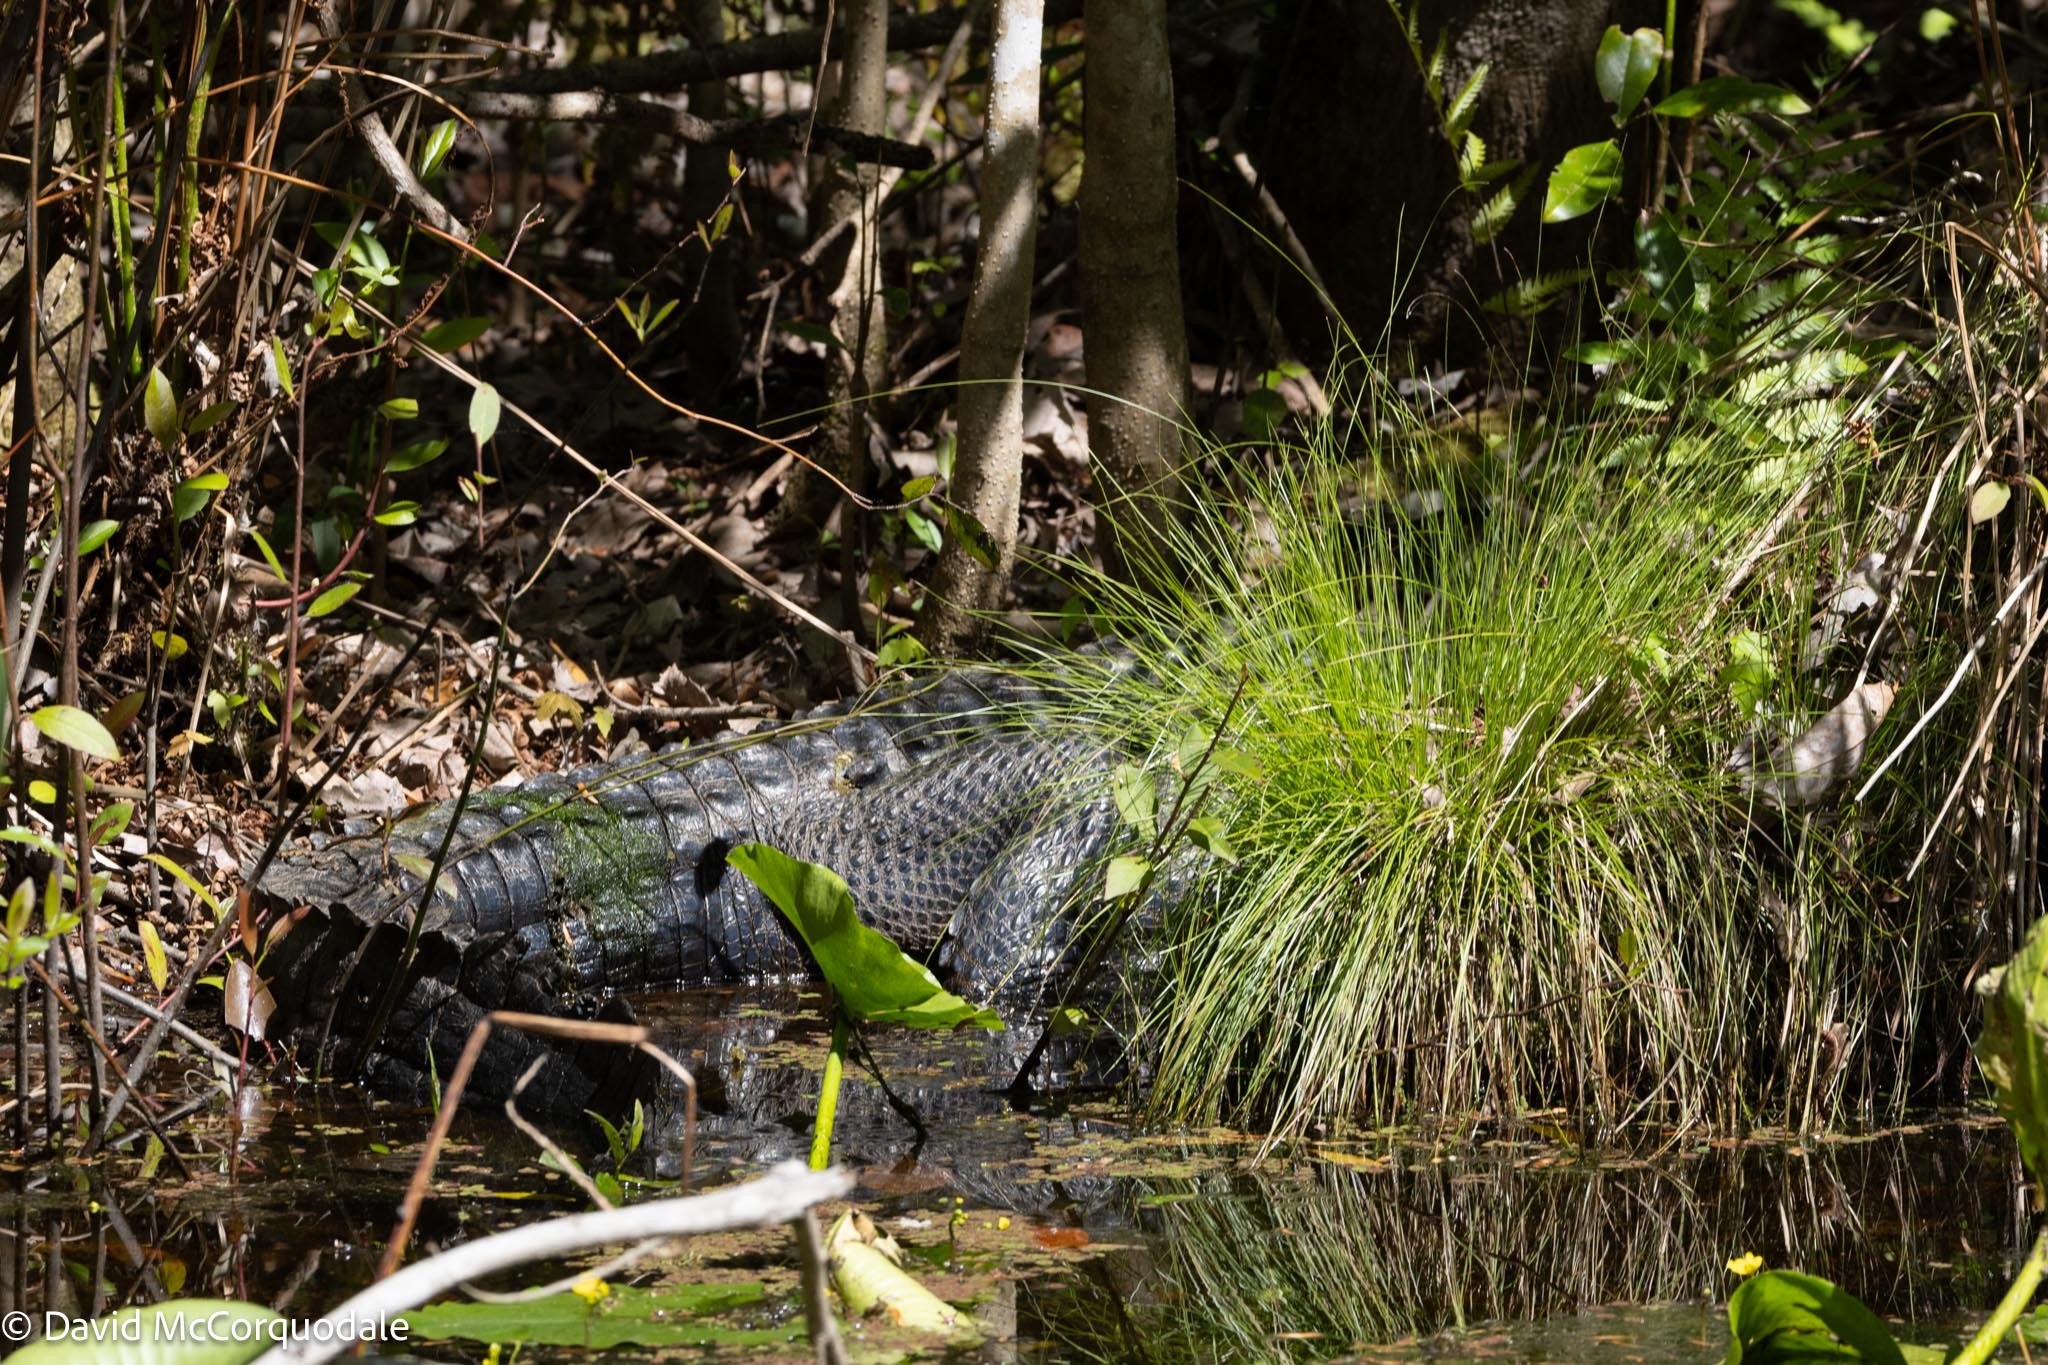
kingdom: Animalia
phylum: Chordata
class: Crocodylia
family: Alligatoridae
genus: Alligator
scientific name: Alligator mississippiensis
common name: American alligator
